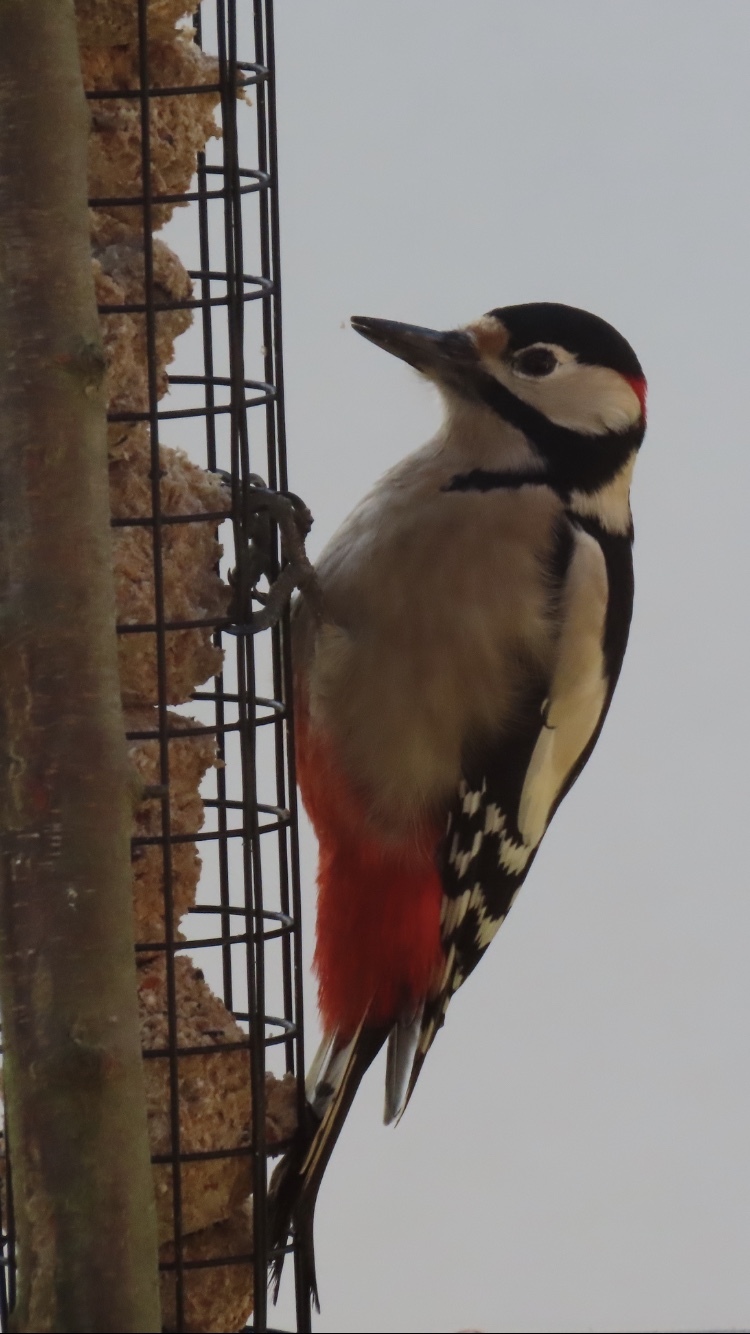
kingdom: Animalia
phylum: Chordata
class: Aves
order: Piciformes
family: Picidae
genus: Dendrocopos
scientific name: Dendrocopos major
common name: Great spotted woodpecker
